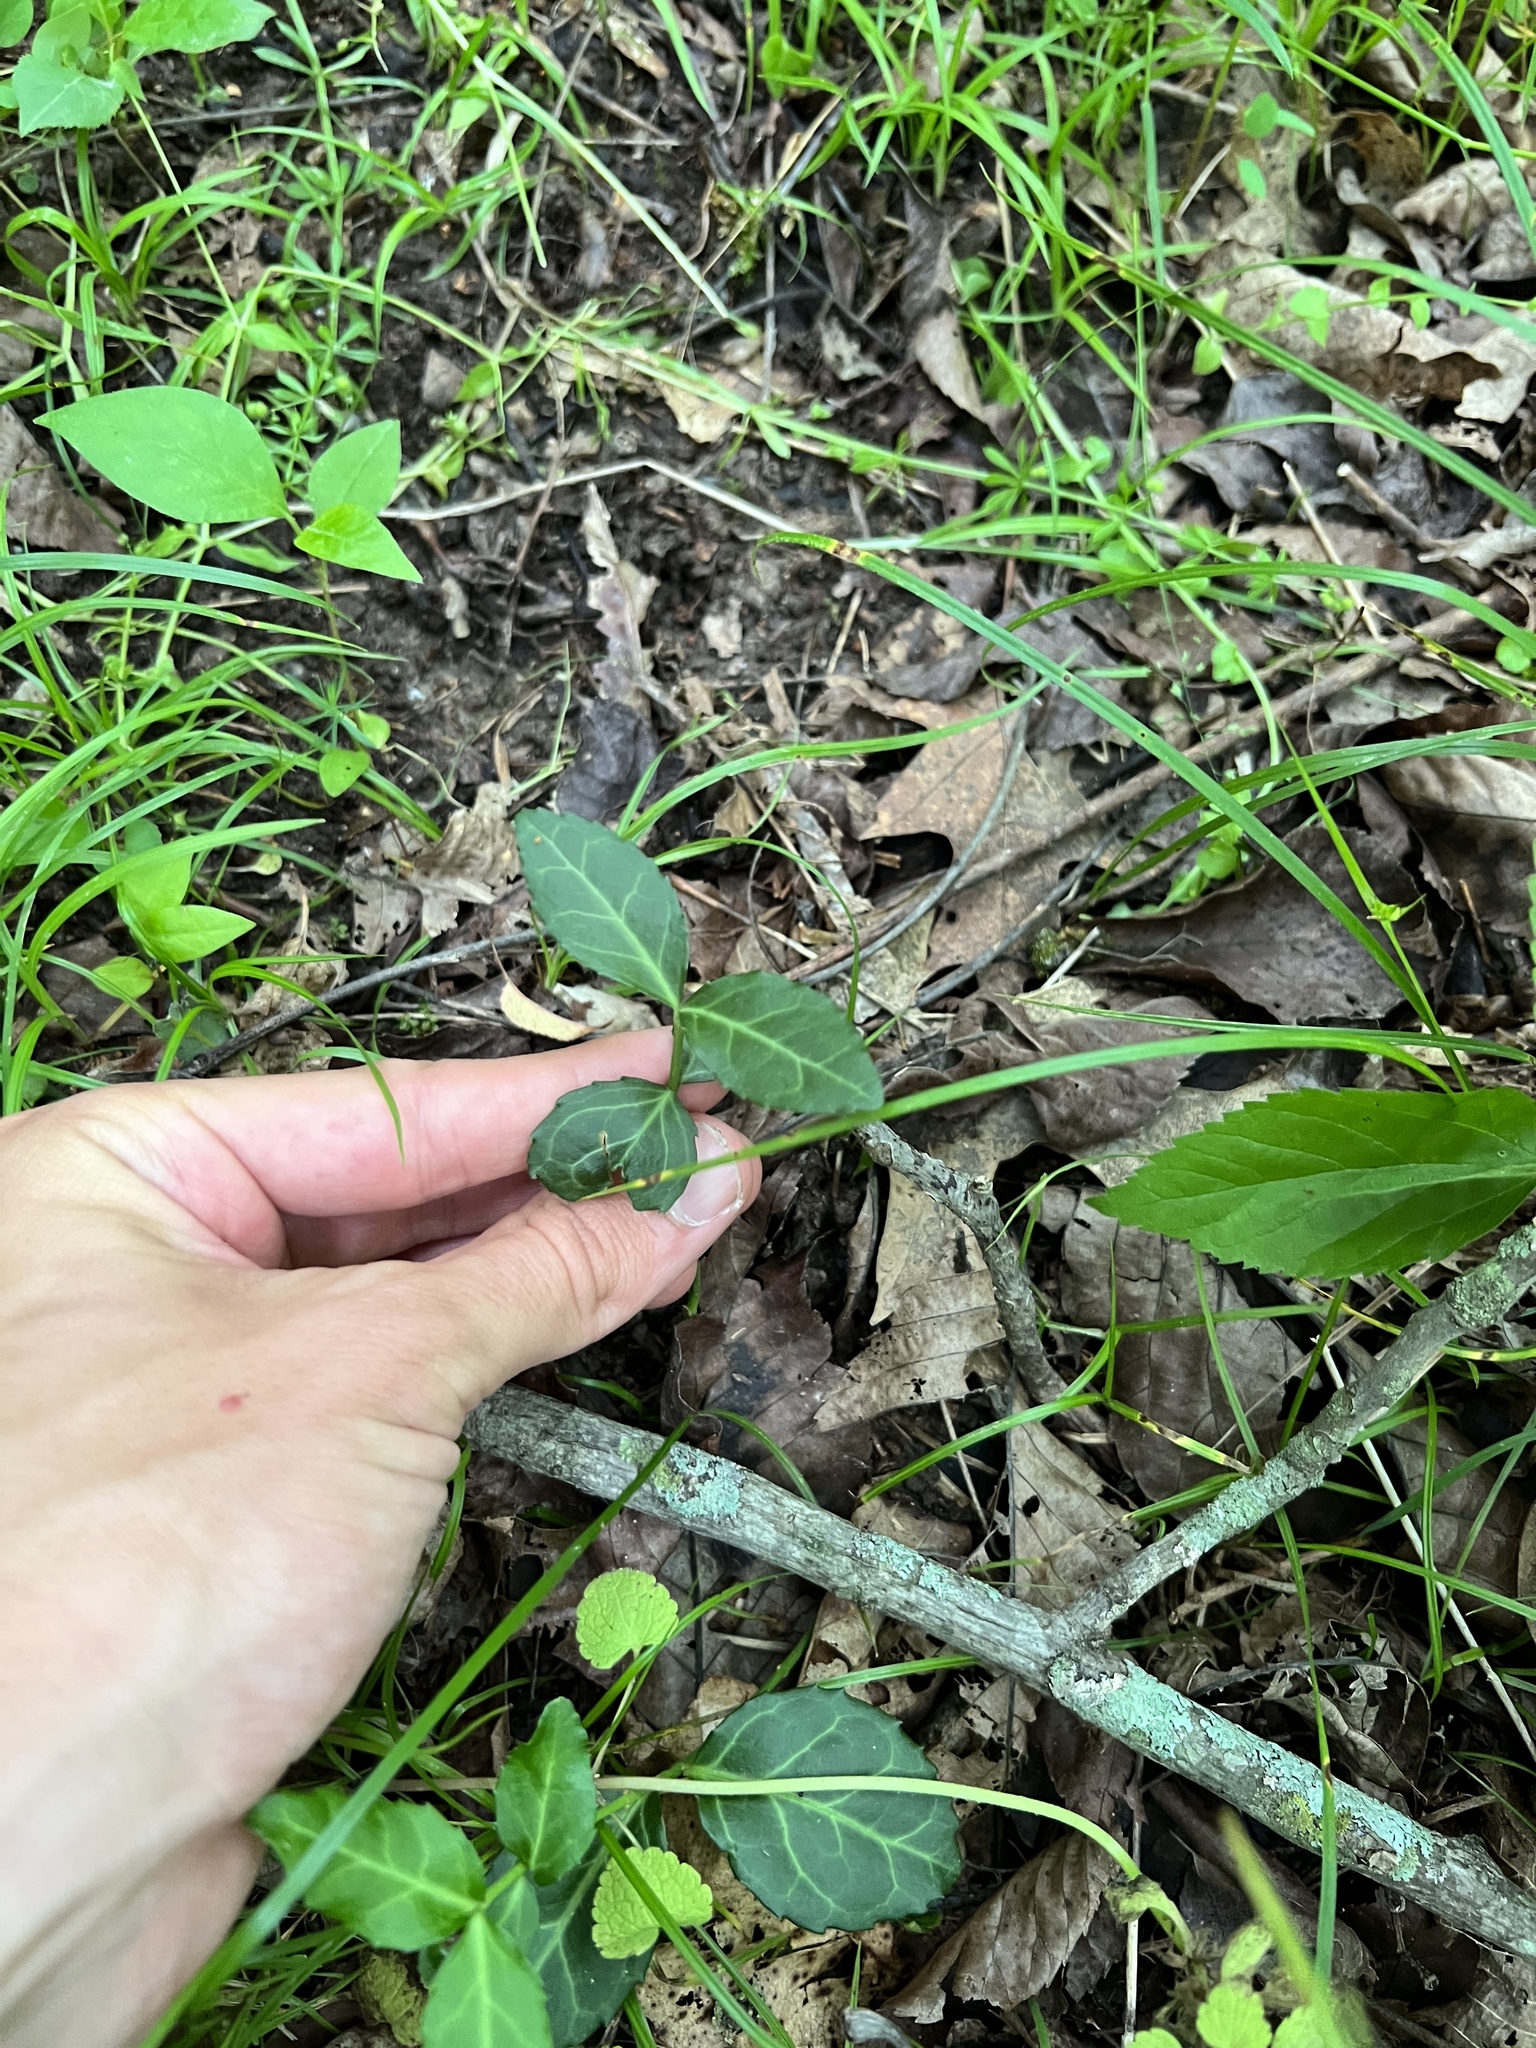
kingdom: Plantae
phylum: Tracheophyta
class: Magnoliopsida
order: Celastrales
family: Celastraceae
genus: Euonymus
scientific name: Euonymus fortunei
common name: Climbing euonymus
